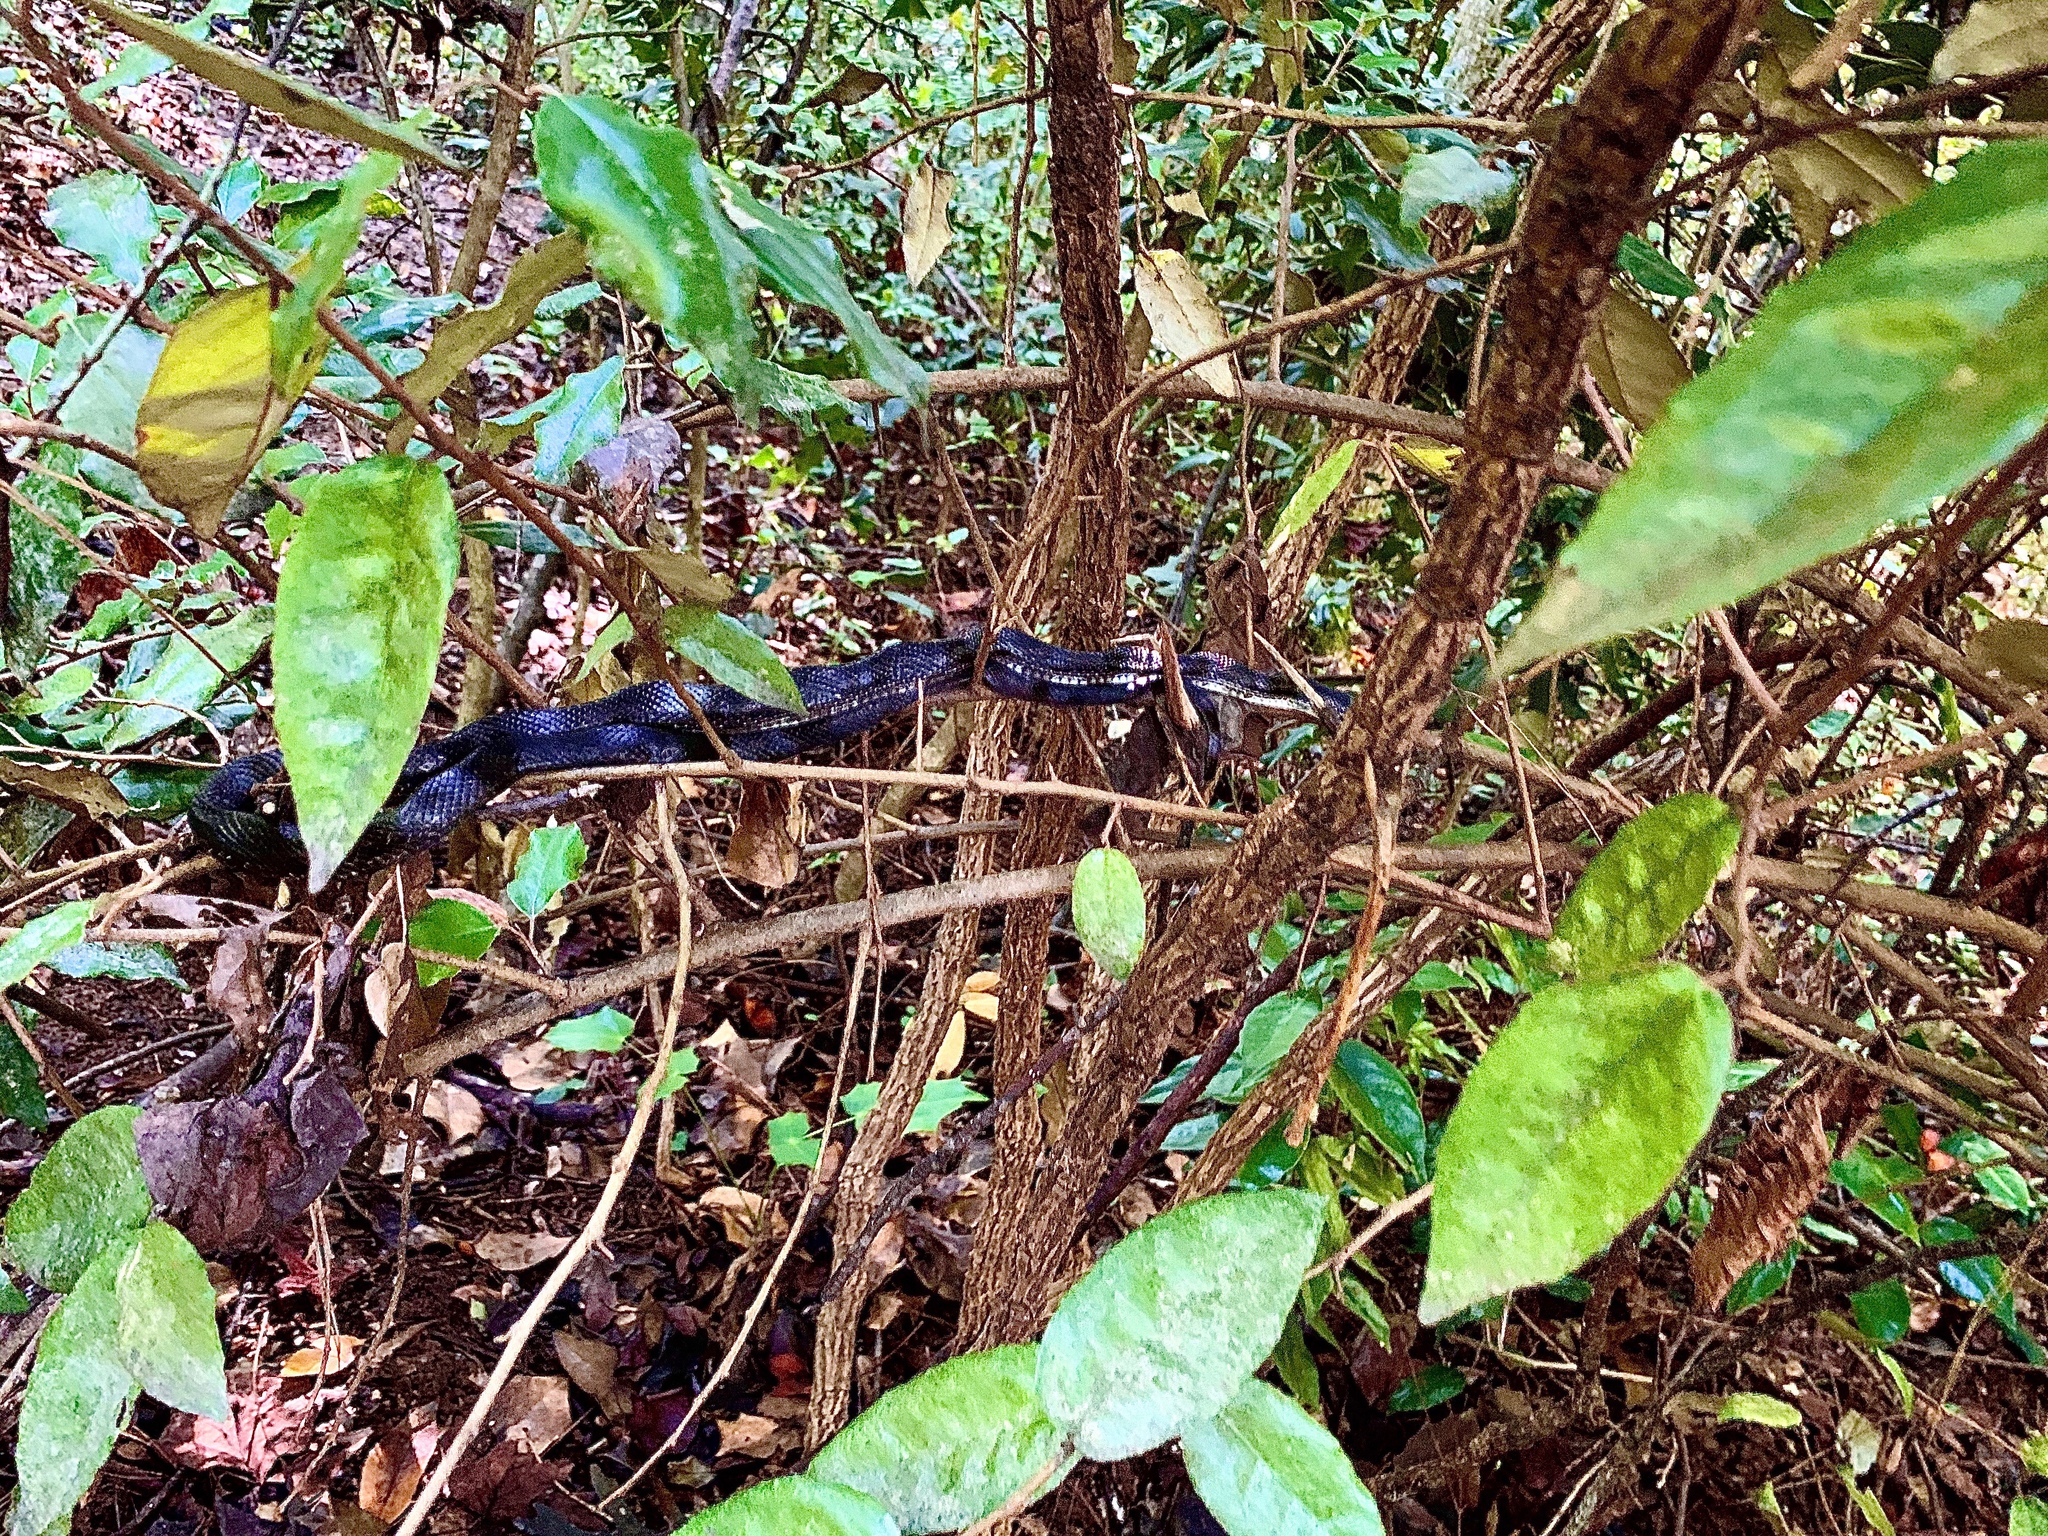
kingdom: Animalia
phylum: Chordata
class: Squamata
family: Colubridae
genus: Pantherophis
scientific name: Pantherophis alleghaniensis
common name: Eastern rat snake
